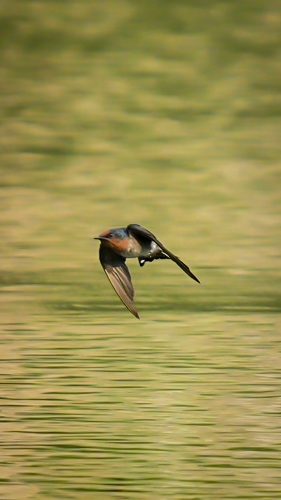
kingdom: Animalia
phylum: Chordata
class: Aves
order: Passeriformes
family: Hirundinidae
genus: Hirundo
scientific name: Hirundo tahitica
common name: Pacific swallow
